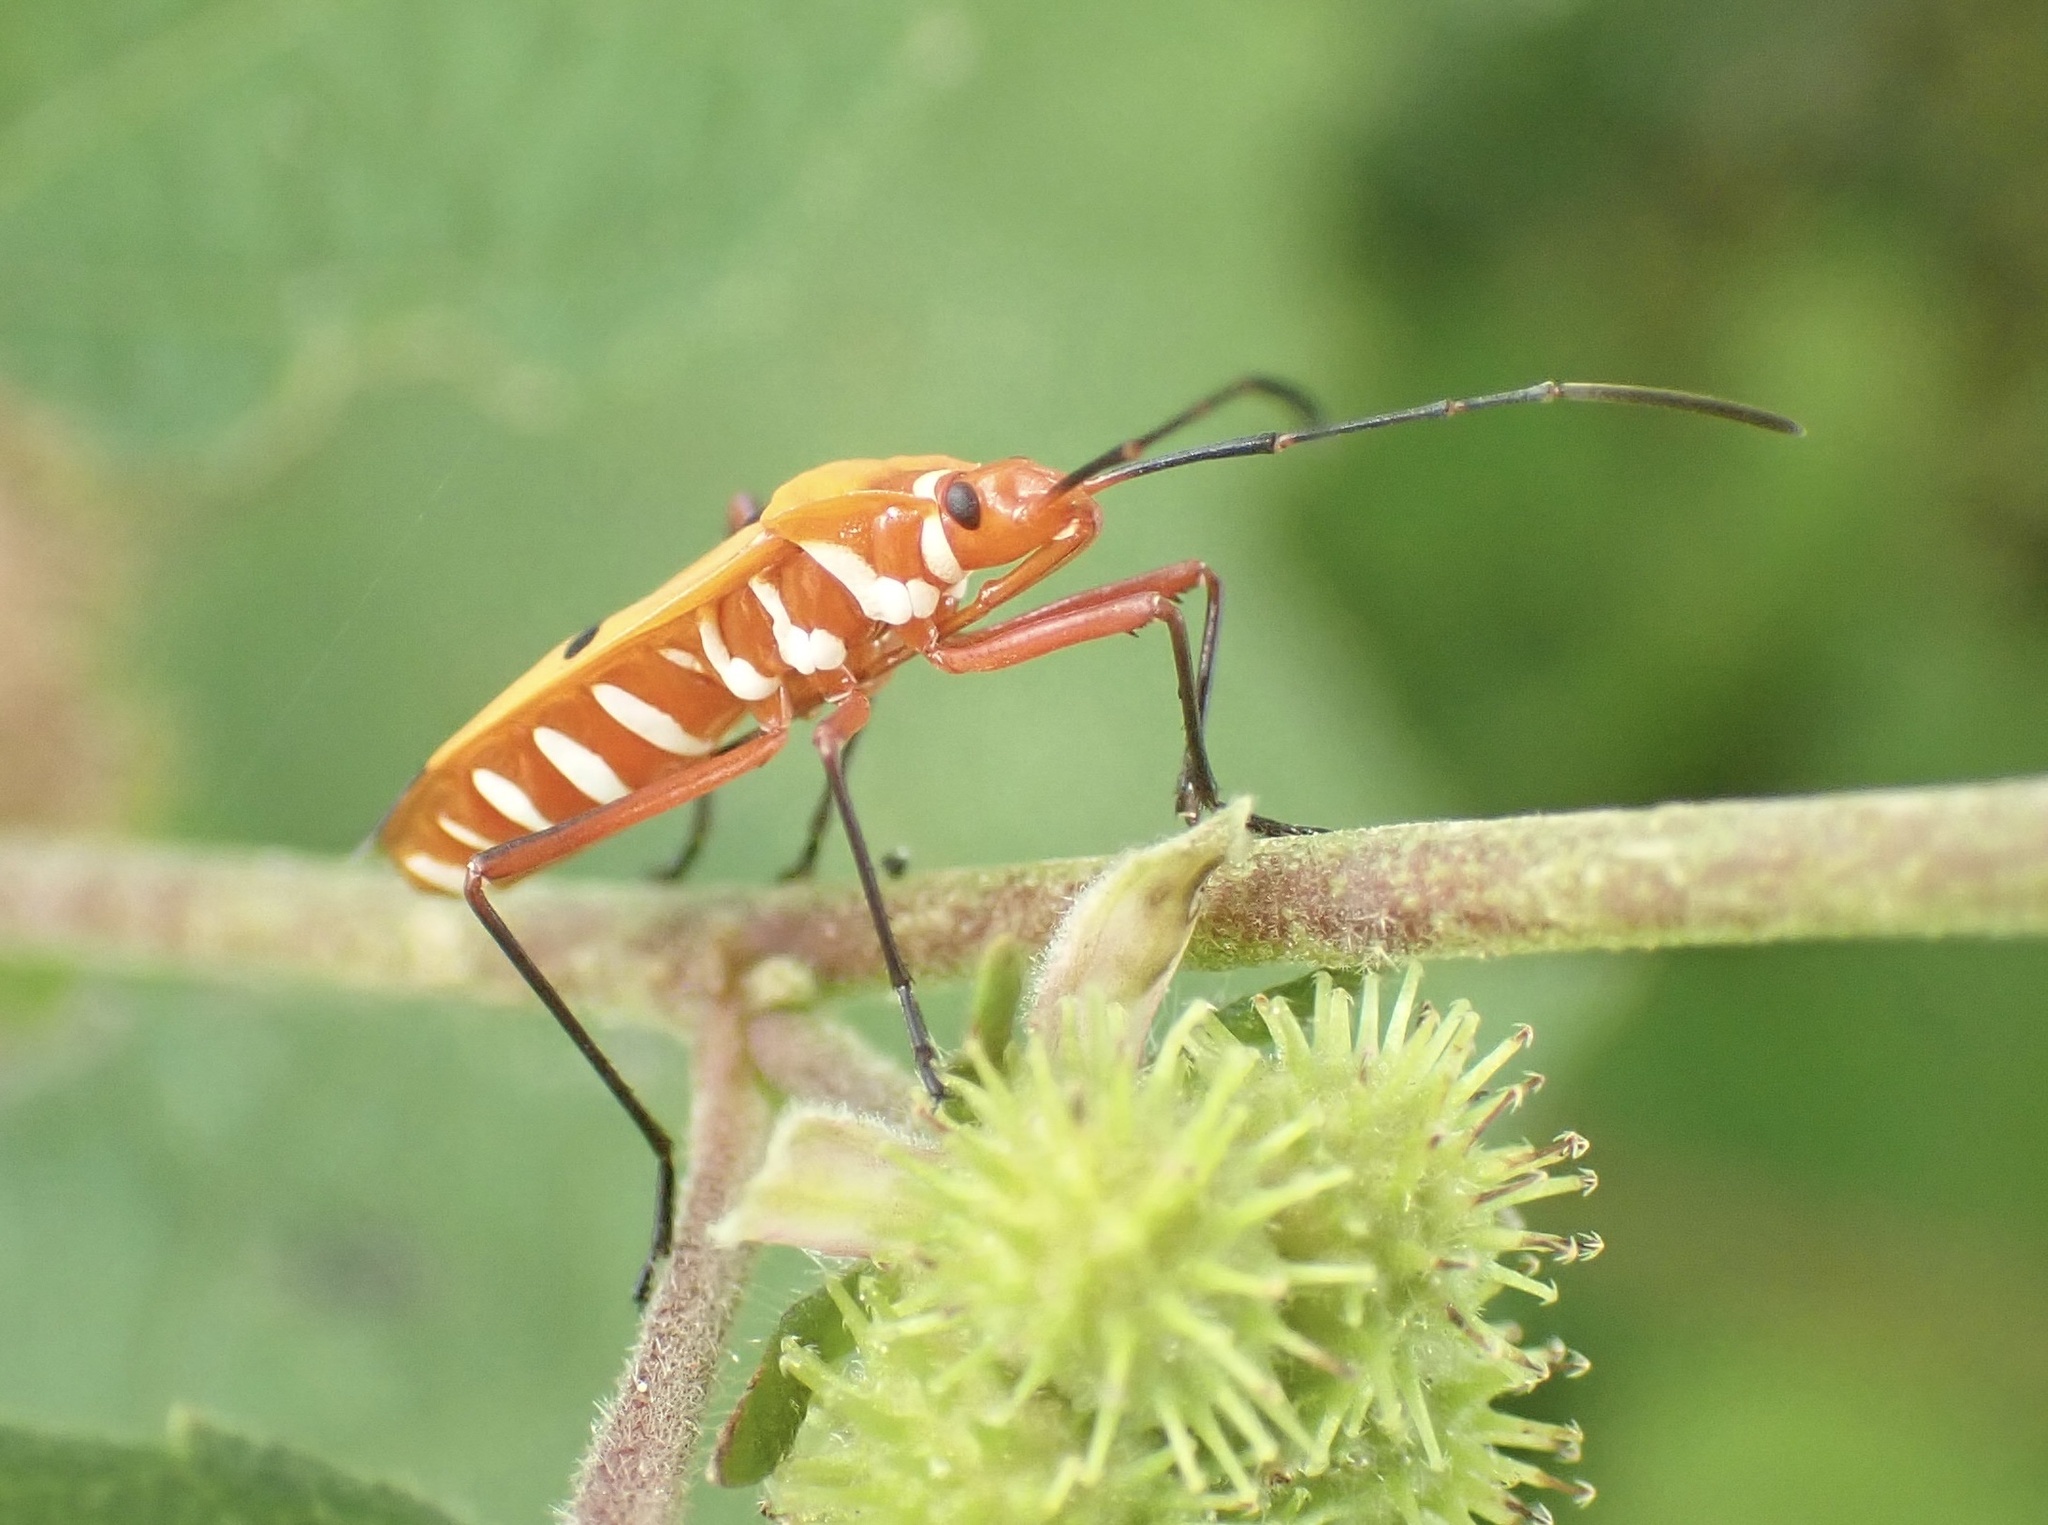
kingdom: Animalia
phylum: Arthropoda
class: Insecta
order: Hemiptera
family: Pyrrhocoridae
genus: Dysdercus
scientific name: Dysdercus cingulatus
